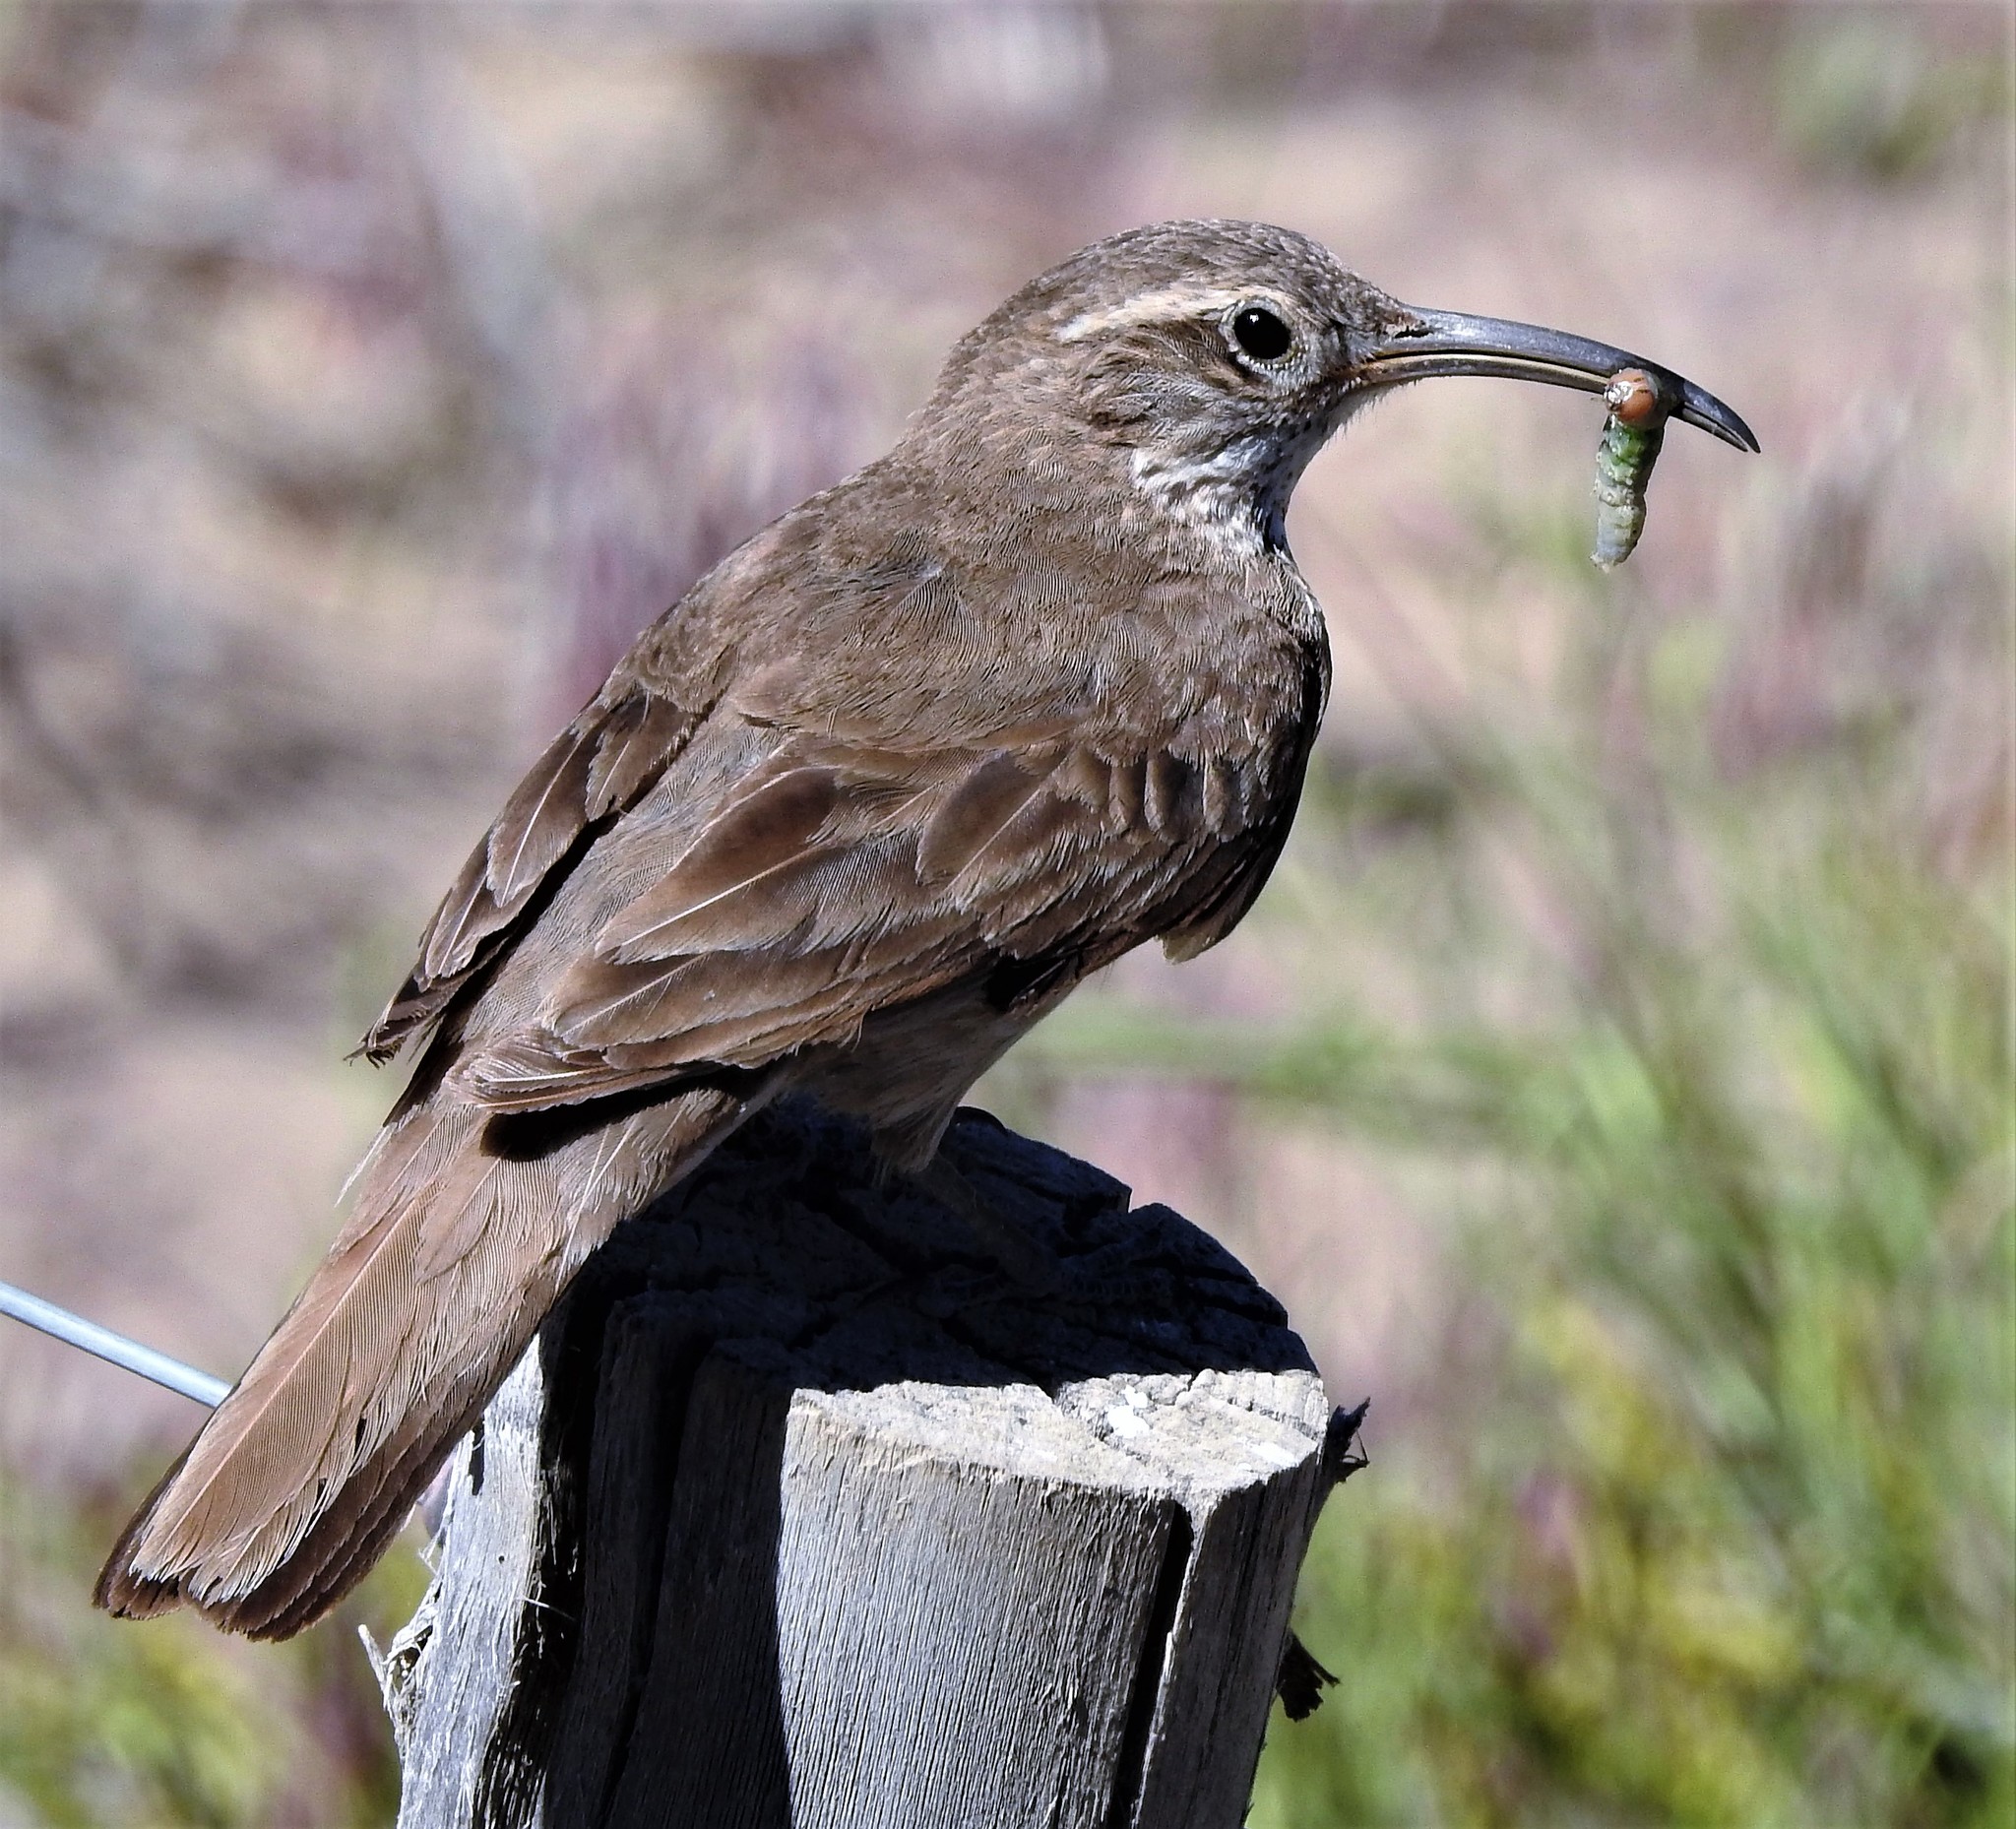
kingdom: Animalia
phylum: Chordata
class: Aves
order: Passeriformes
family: Furnariidae
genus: Upucerthia
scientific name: Upucerthia dumetaria
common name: Scale-throated earthcreeper
